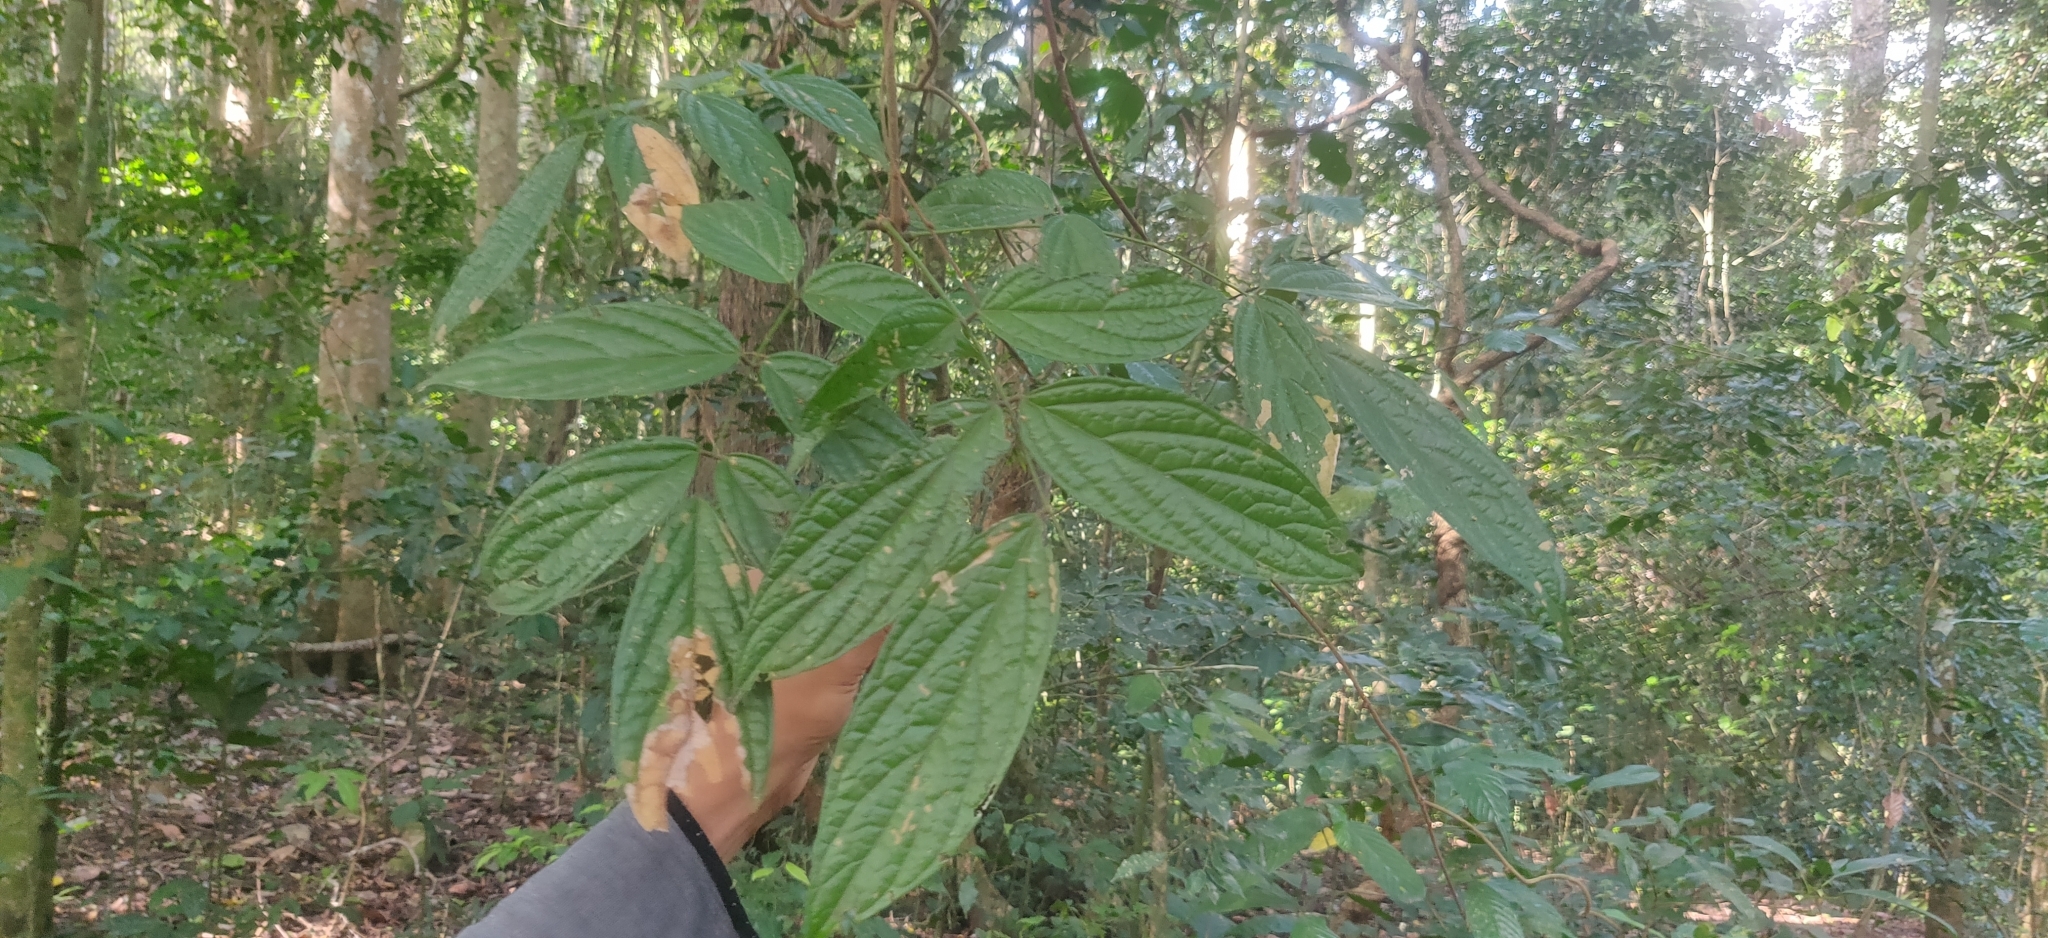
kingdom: Plantae
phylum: Tracheophyta
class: Magnoliopsida
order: Fabales
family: Fabaceae
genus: Kunstleria
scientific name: Kunstleria keralensis
